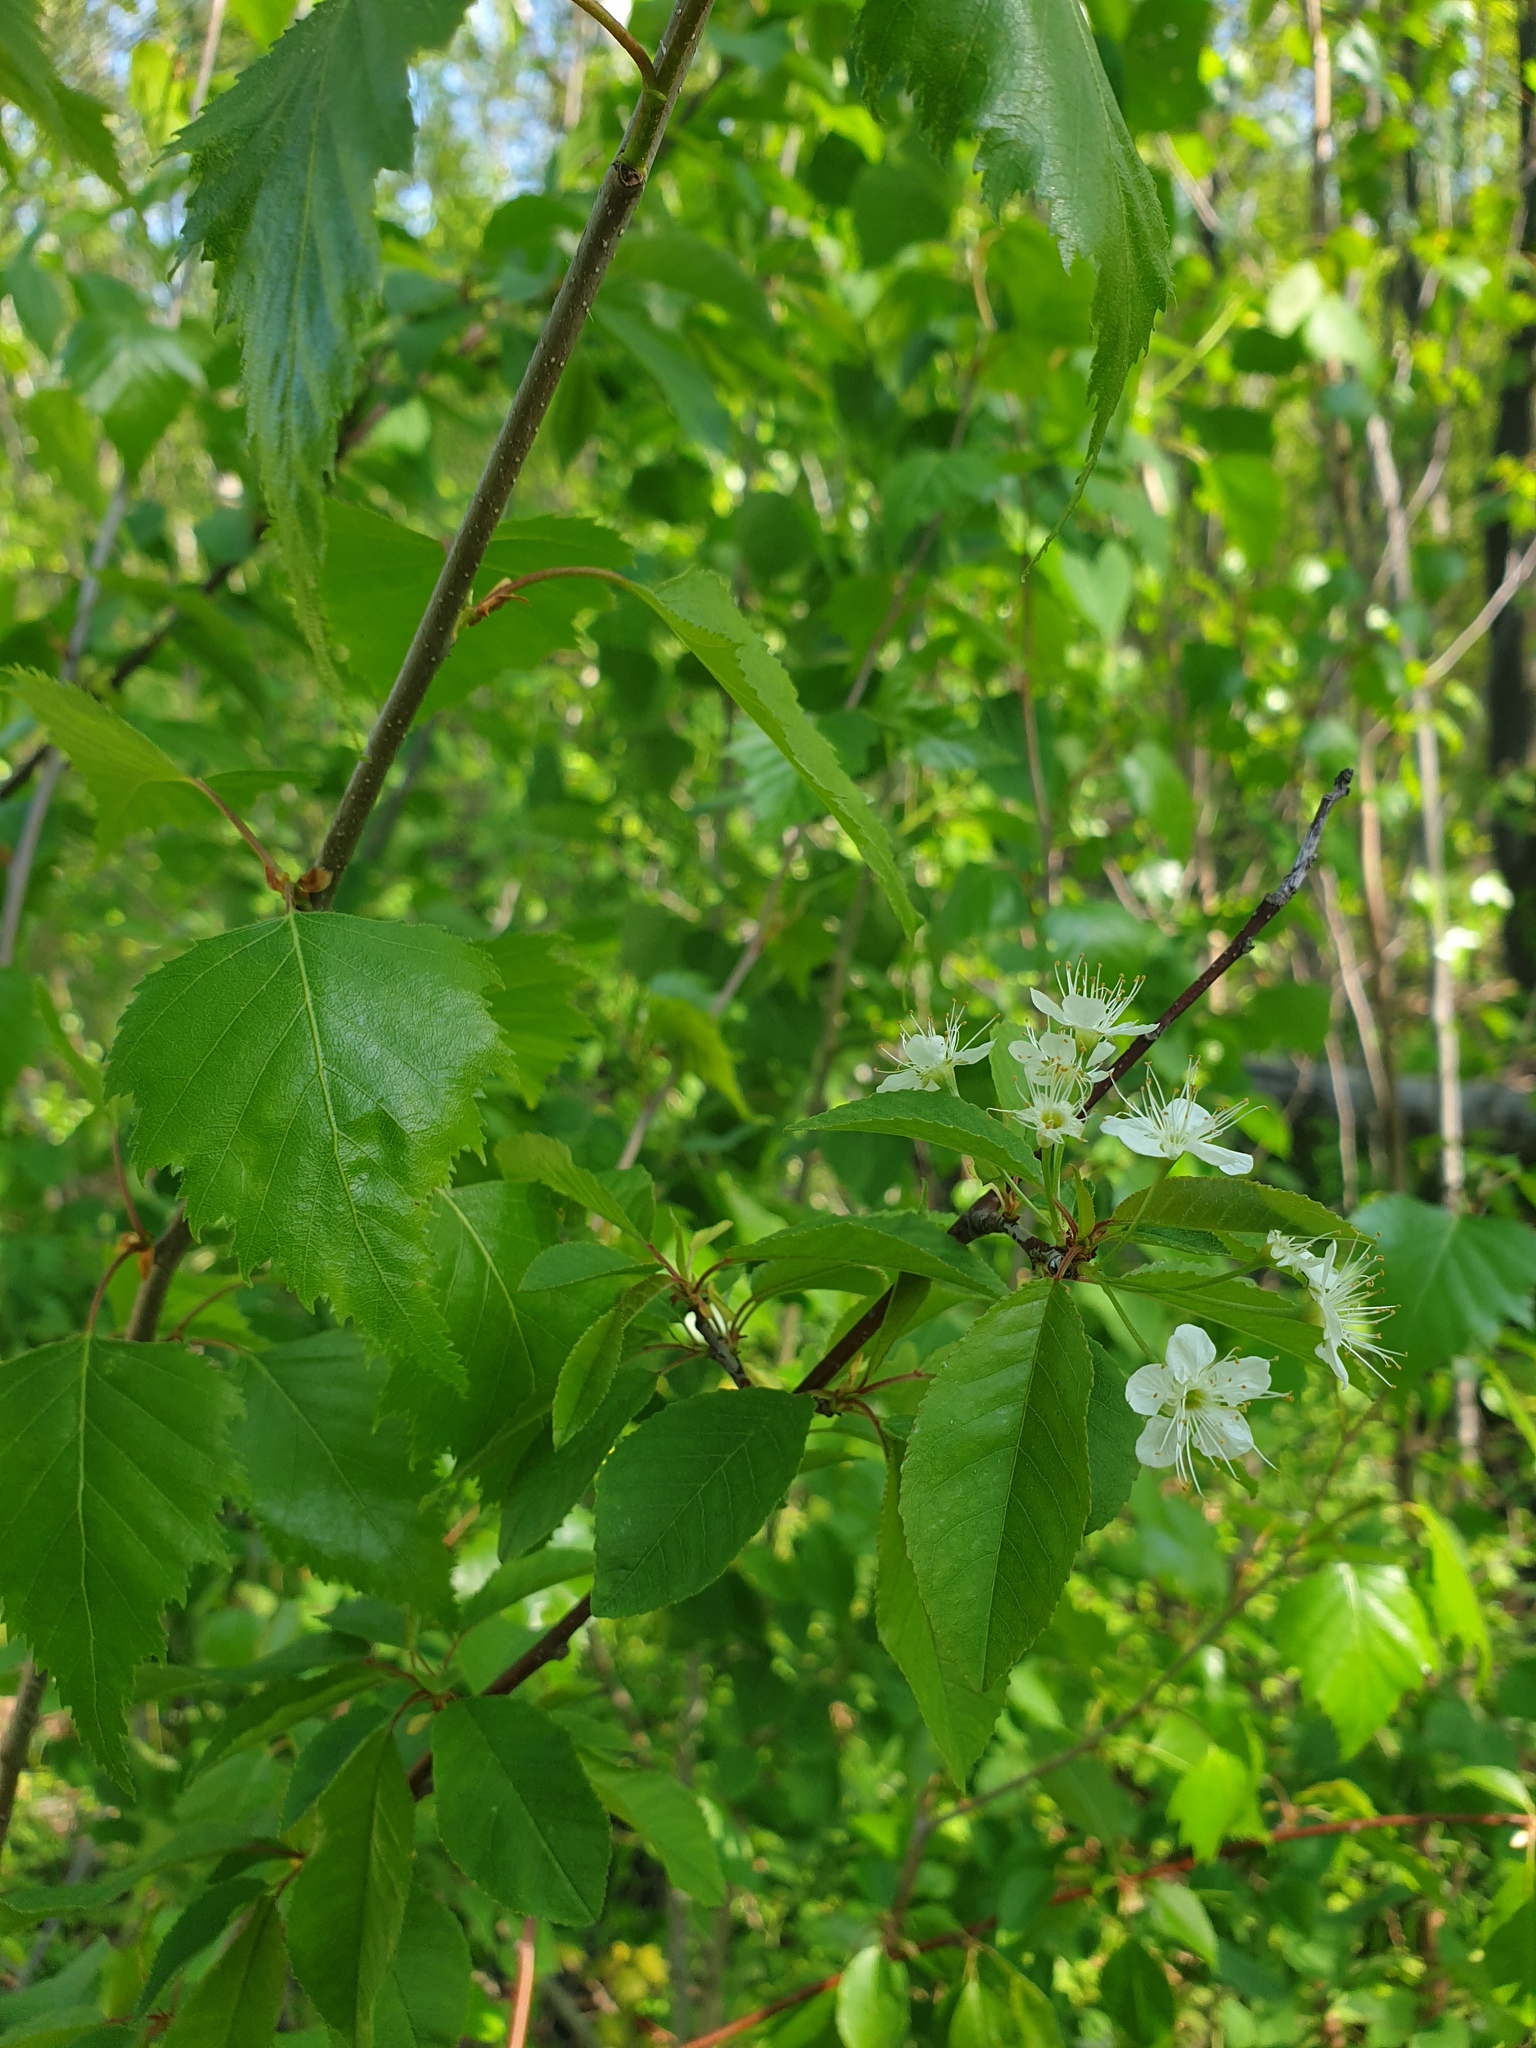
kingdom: Plantae
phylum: Tracheophyta
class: Magnoliopsida
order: Rosales
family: Rosaceae
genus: Prunus
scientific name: Prunus pensylvanica
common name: Pin cherry
